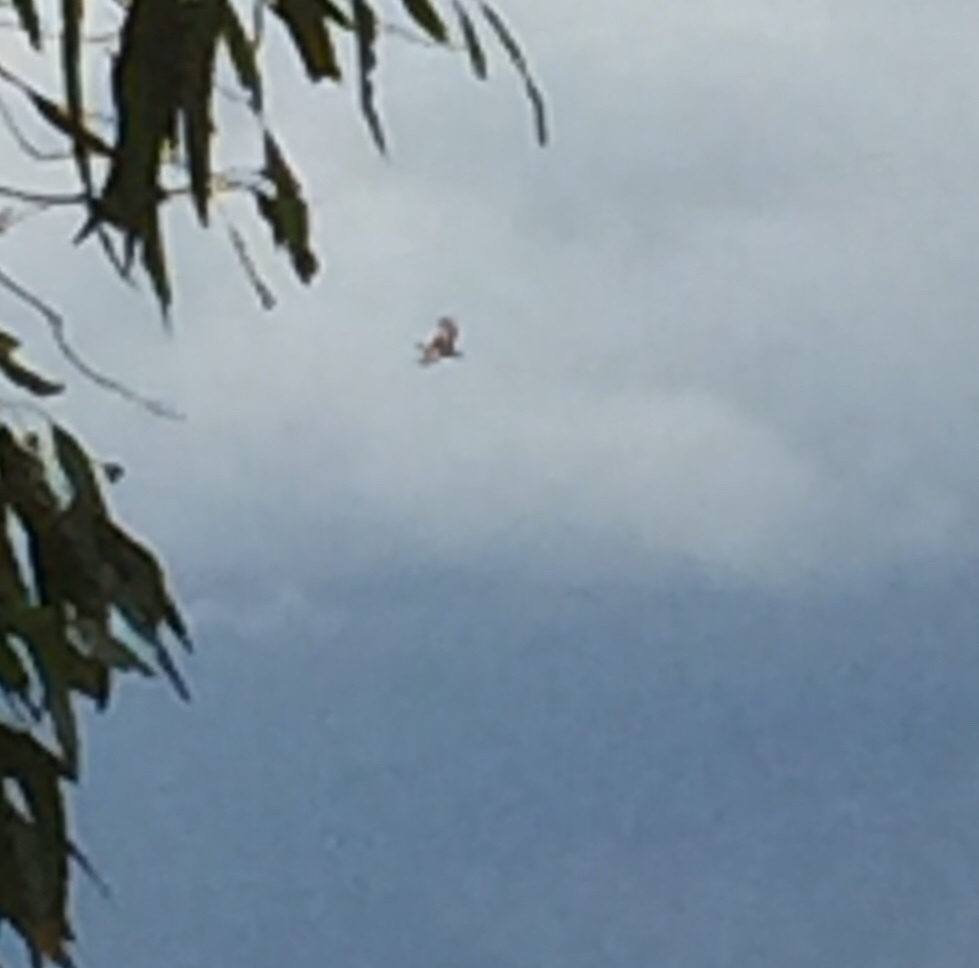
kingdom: Animalia
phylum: Chordata
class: Aves
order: Otidiformes
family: Otididae
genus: Otis
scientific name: Otis tarda
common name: Great bustard
